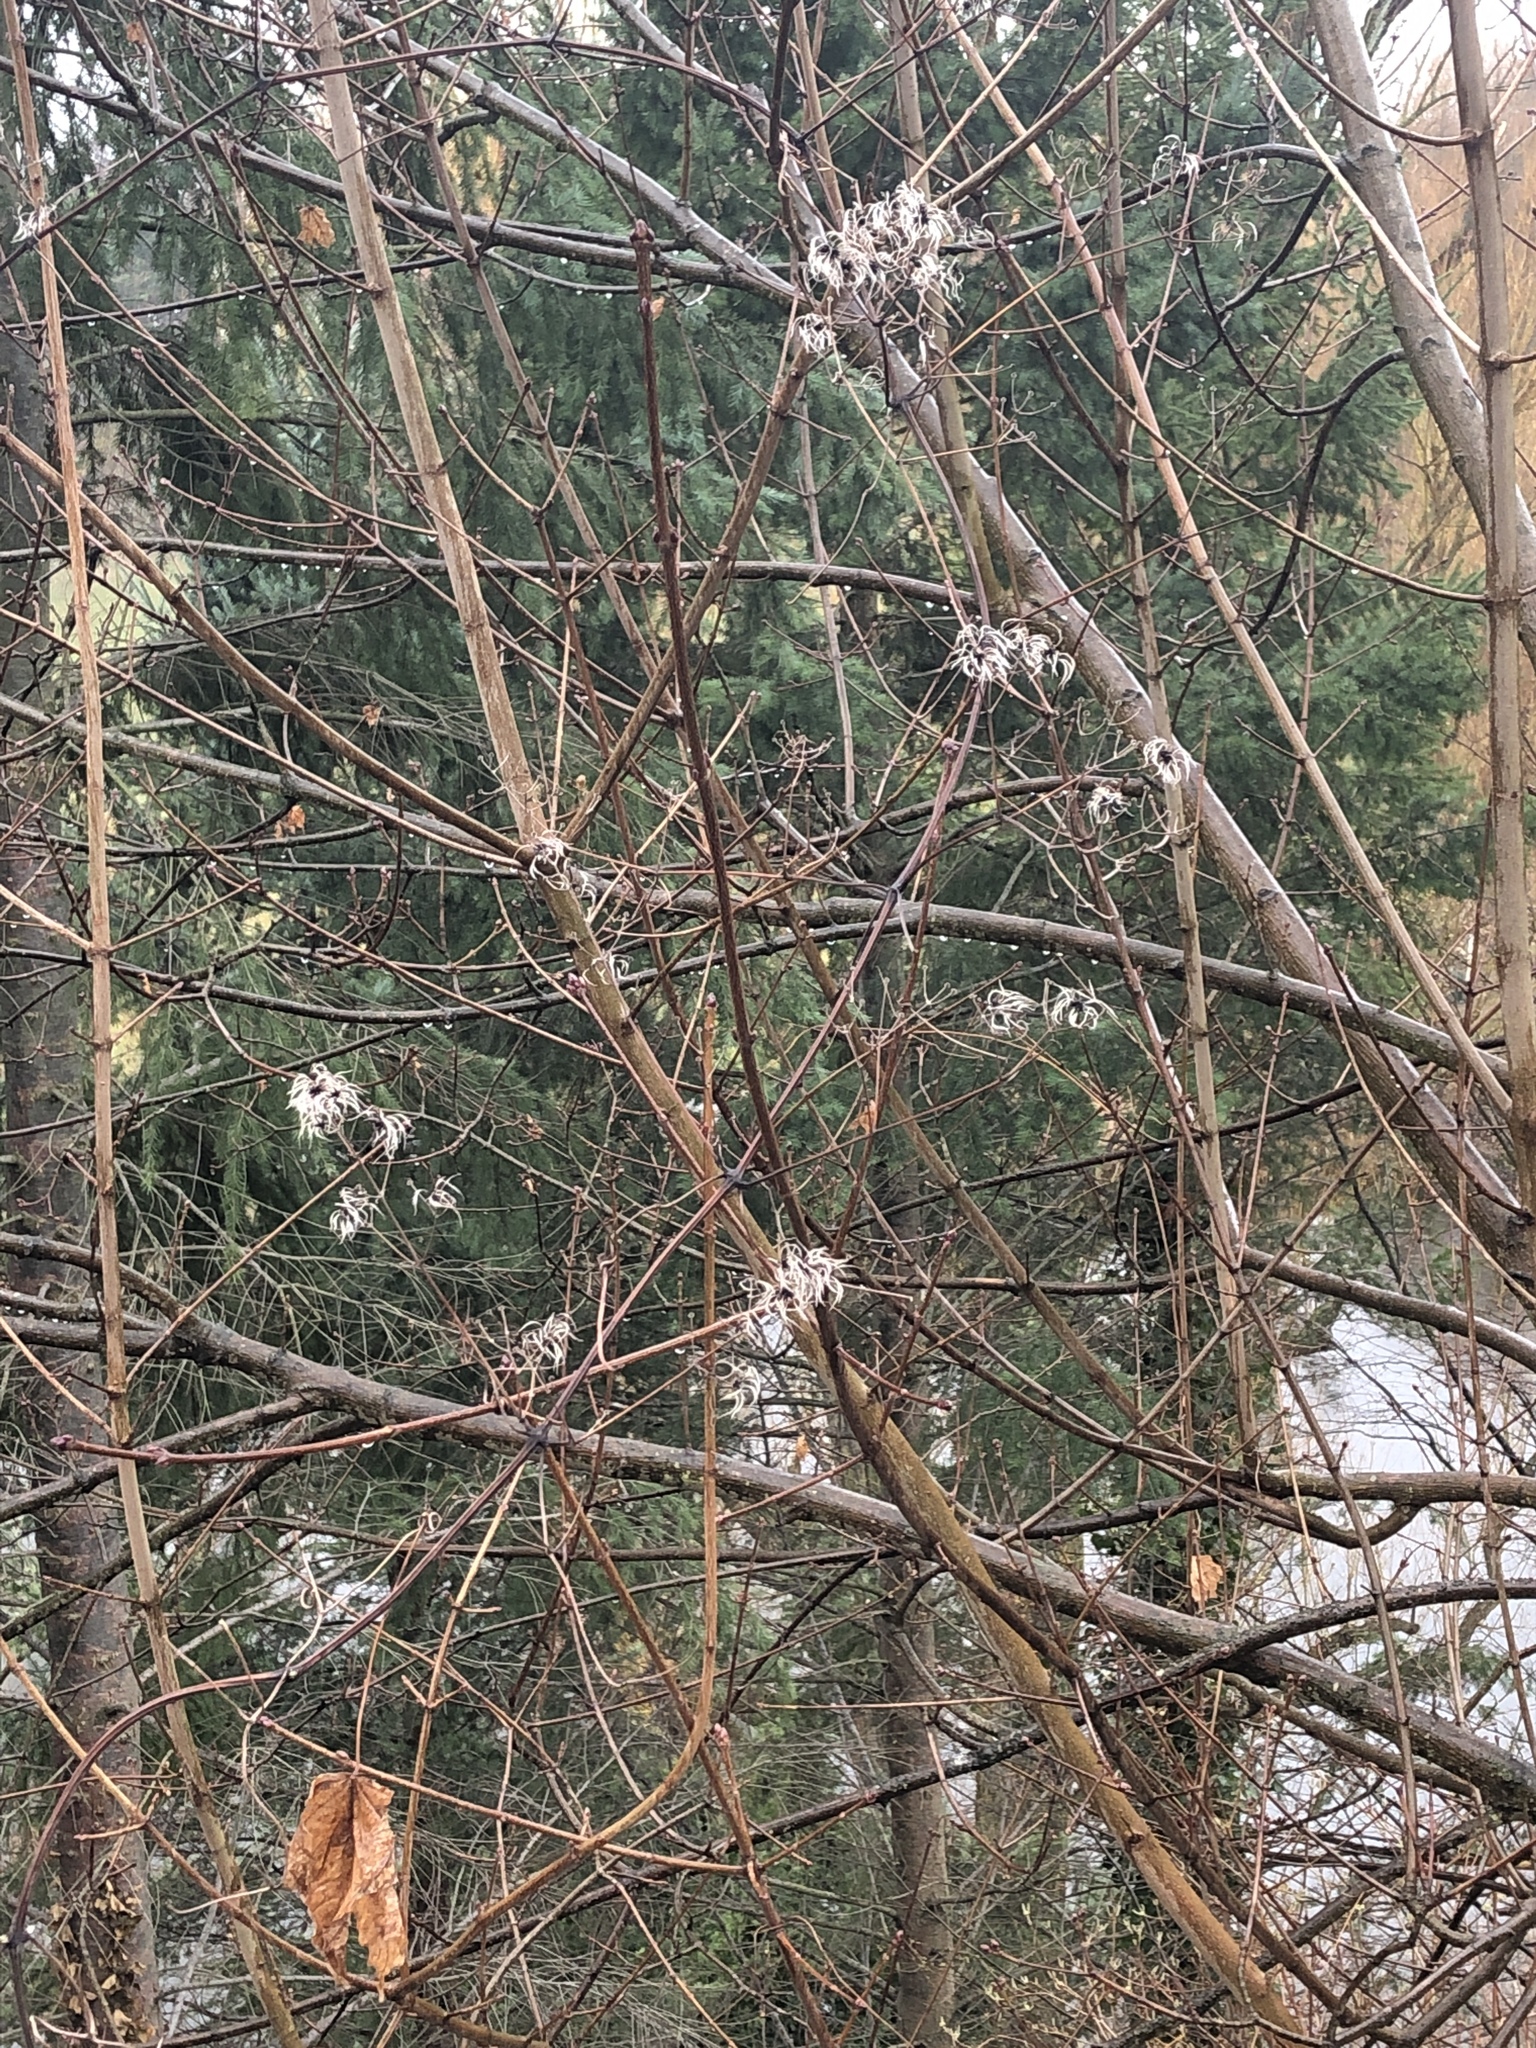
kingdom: Plantae
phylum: Tracheophyta
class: Magnoliopsida
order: Ranunculales
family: Ranunculaceae
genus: Clematis
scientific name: Clematis vitalba
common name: Evergreen clematis
